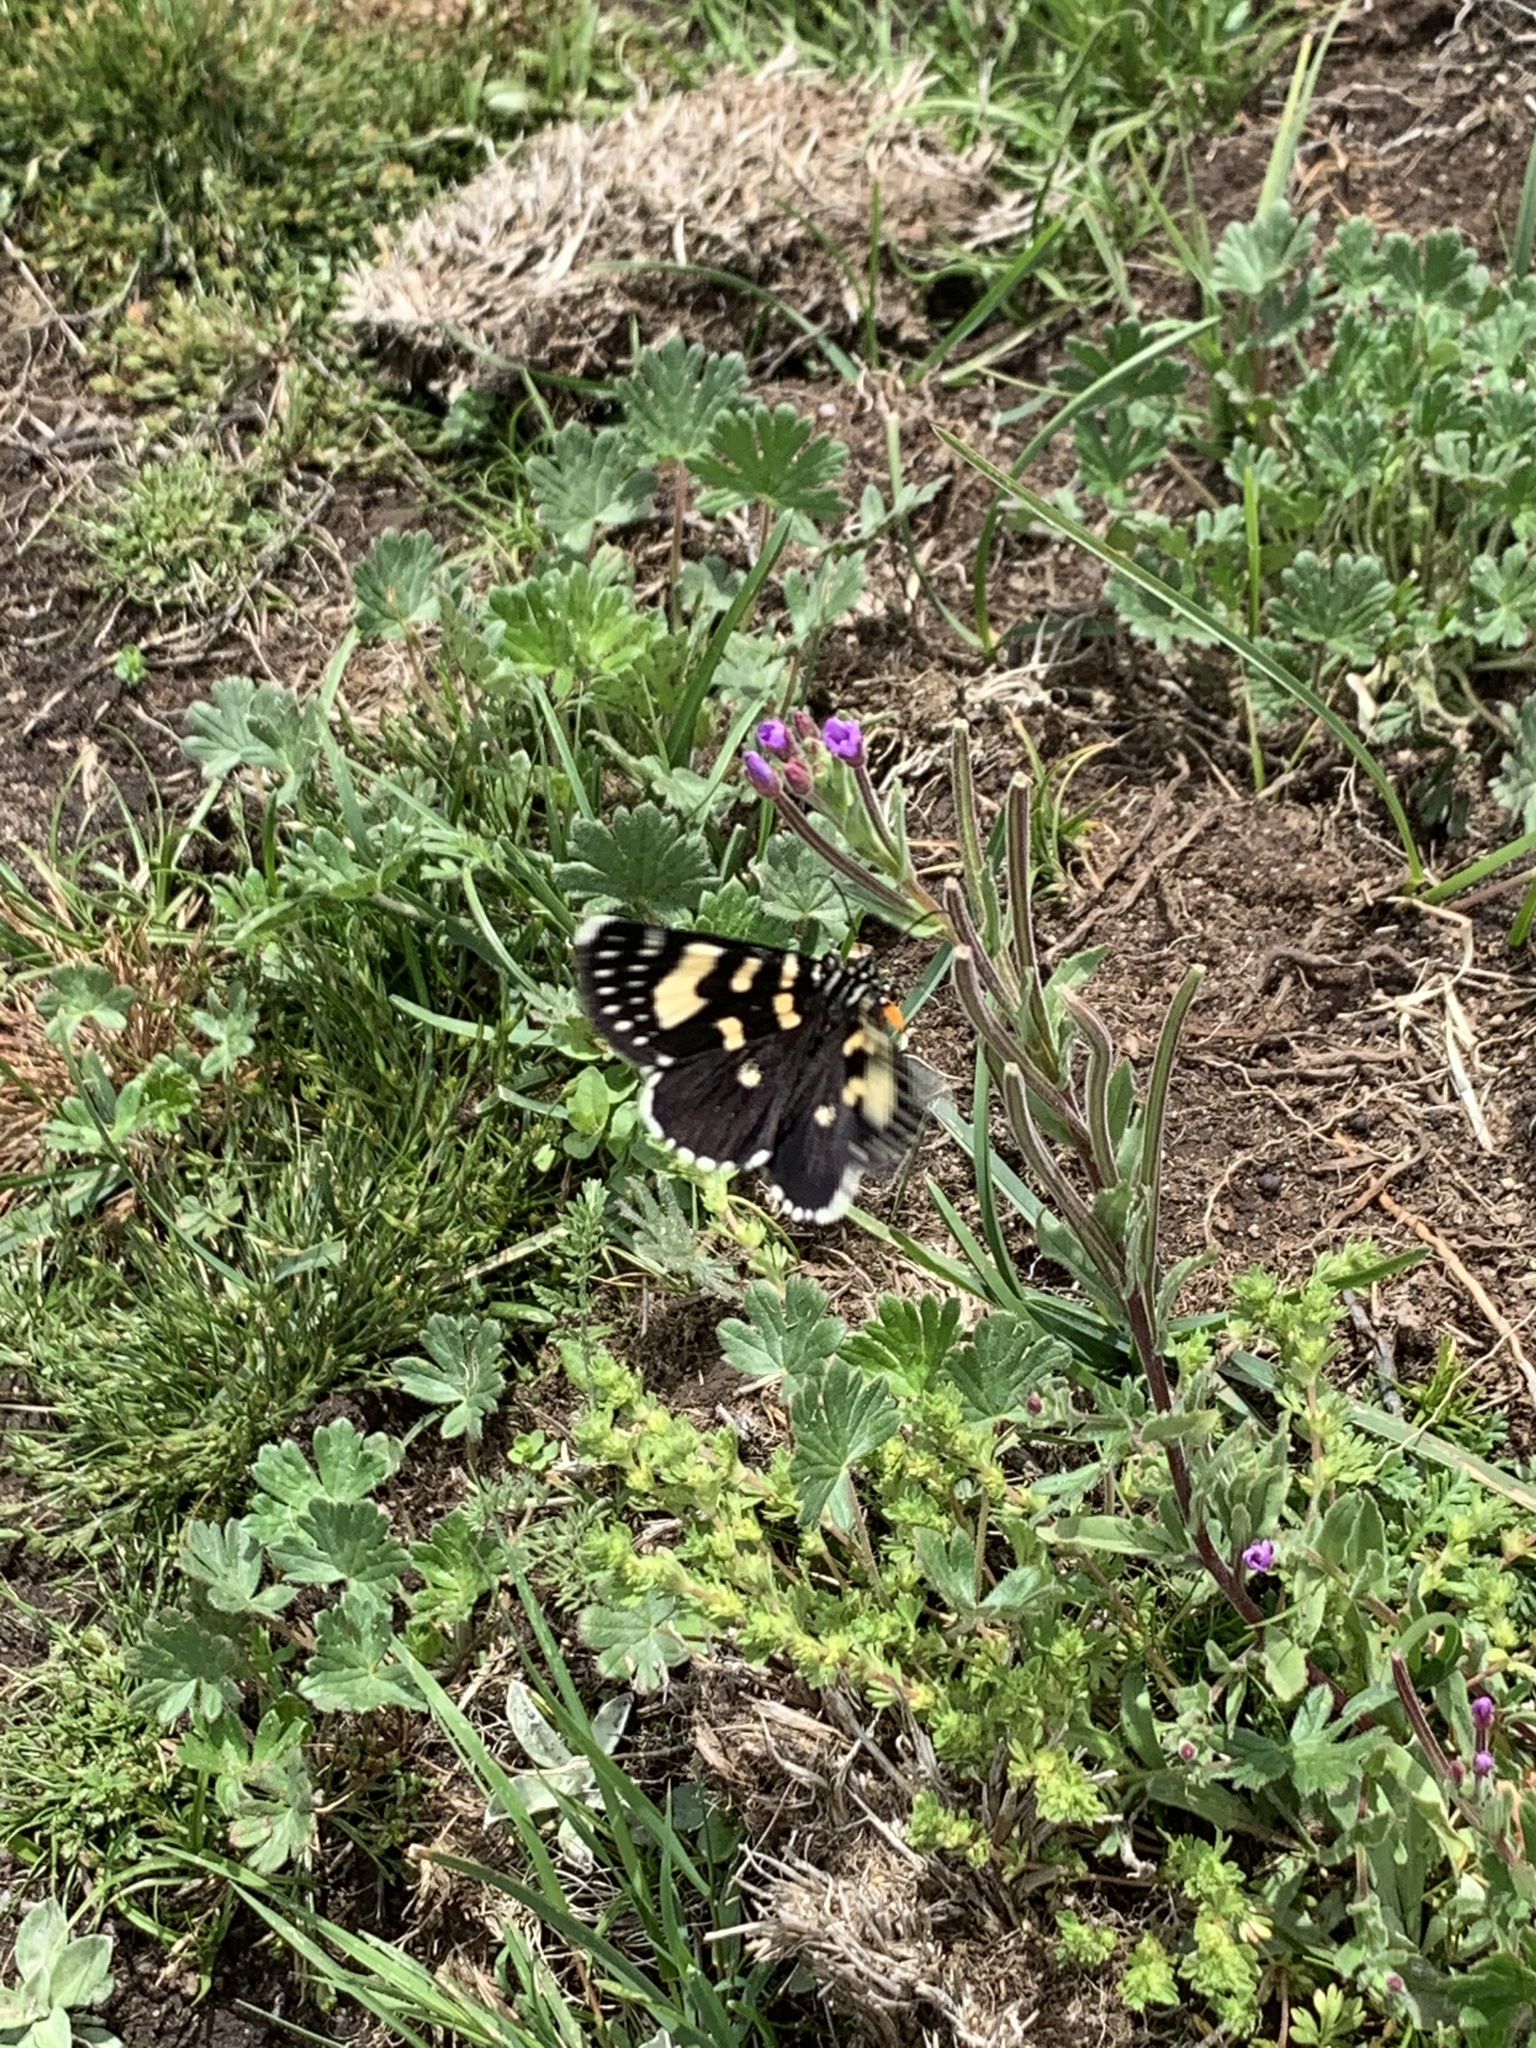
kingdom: Animalia
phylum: Arthropoda
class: Insecta
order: Lepidoptera
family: Noctuidae
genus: Phalaenoides
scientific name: Phalaenoides tristifica
